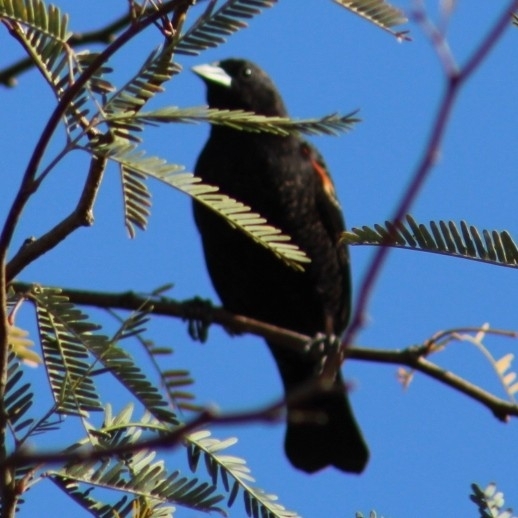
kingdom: Animalia
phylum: Chordata
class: Aves
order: Passeriformes
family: Icteridae
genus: Agelaius
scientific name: Agelaius phoeniceus
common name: Red-winged blackbird
